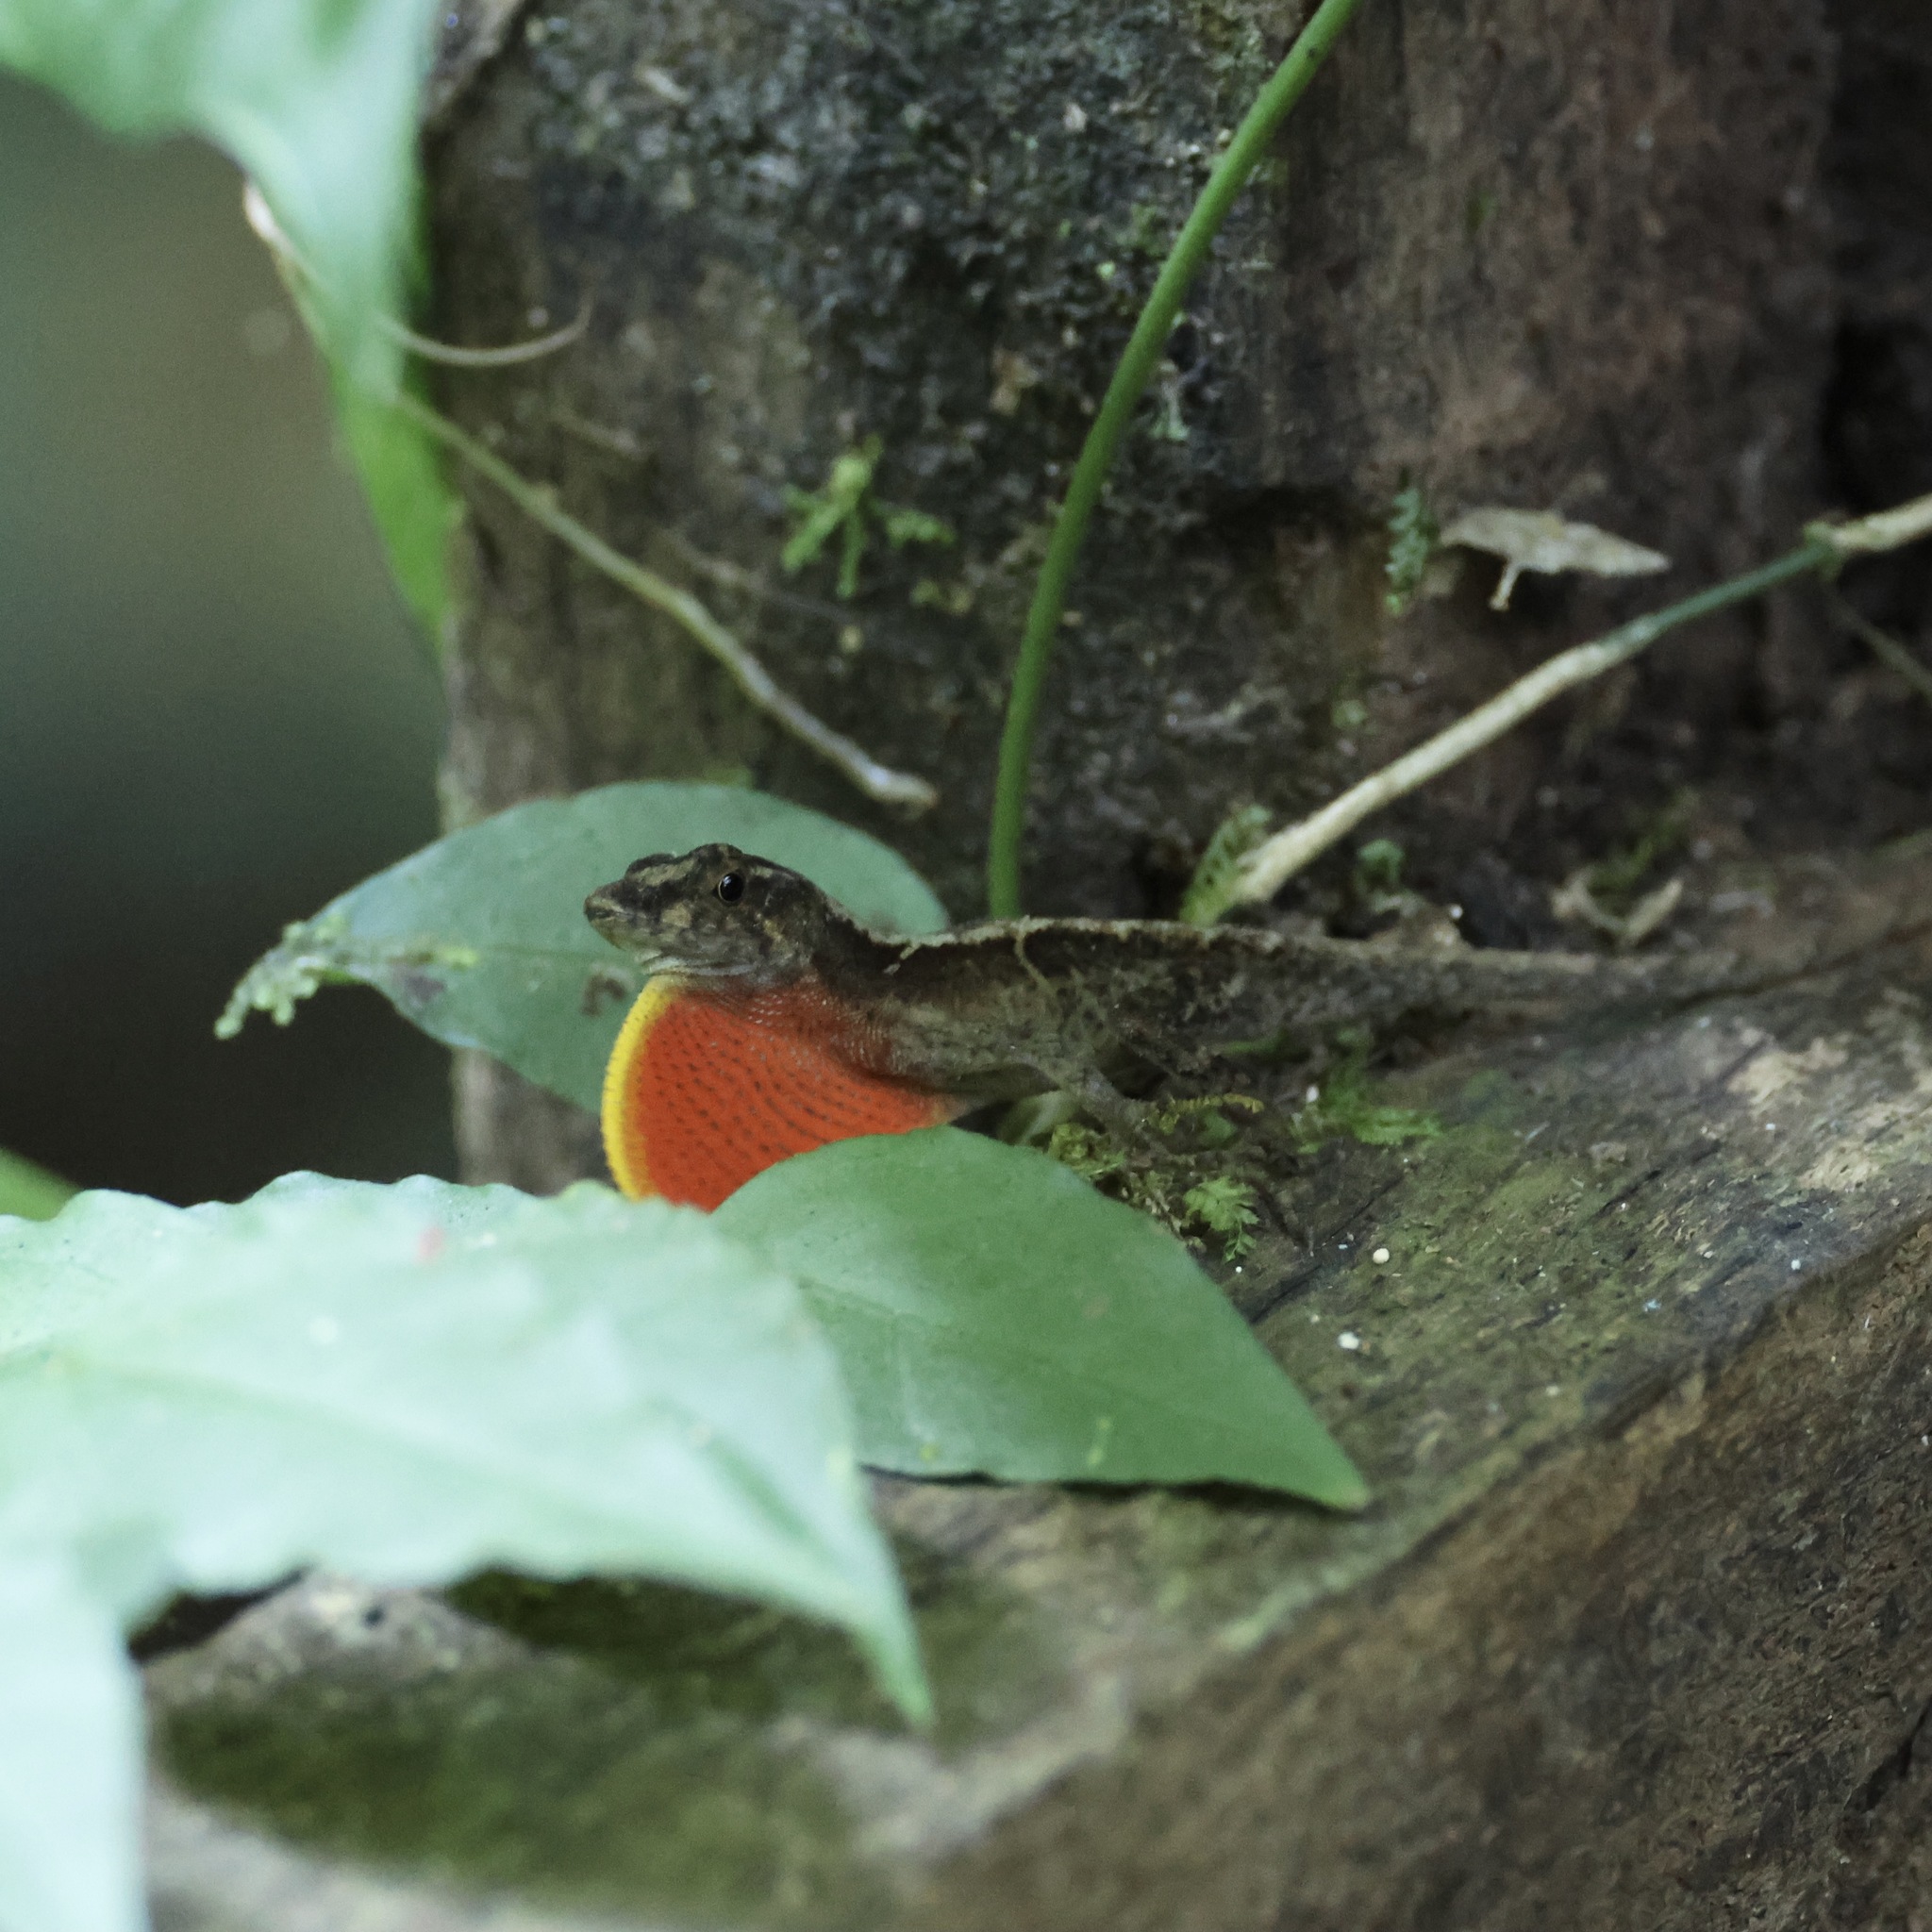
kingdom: Animalia
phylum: Chordata
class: Squamata
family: Dactyloidae
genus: Anolis
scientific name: Anolis humilis
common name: Humble anole
